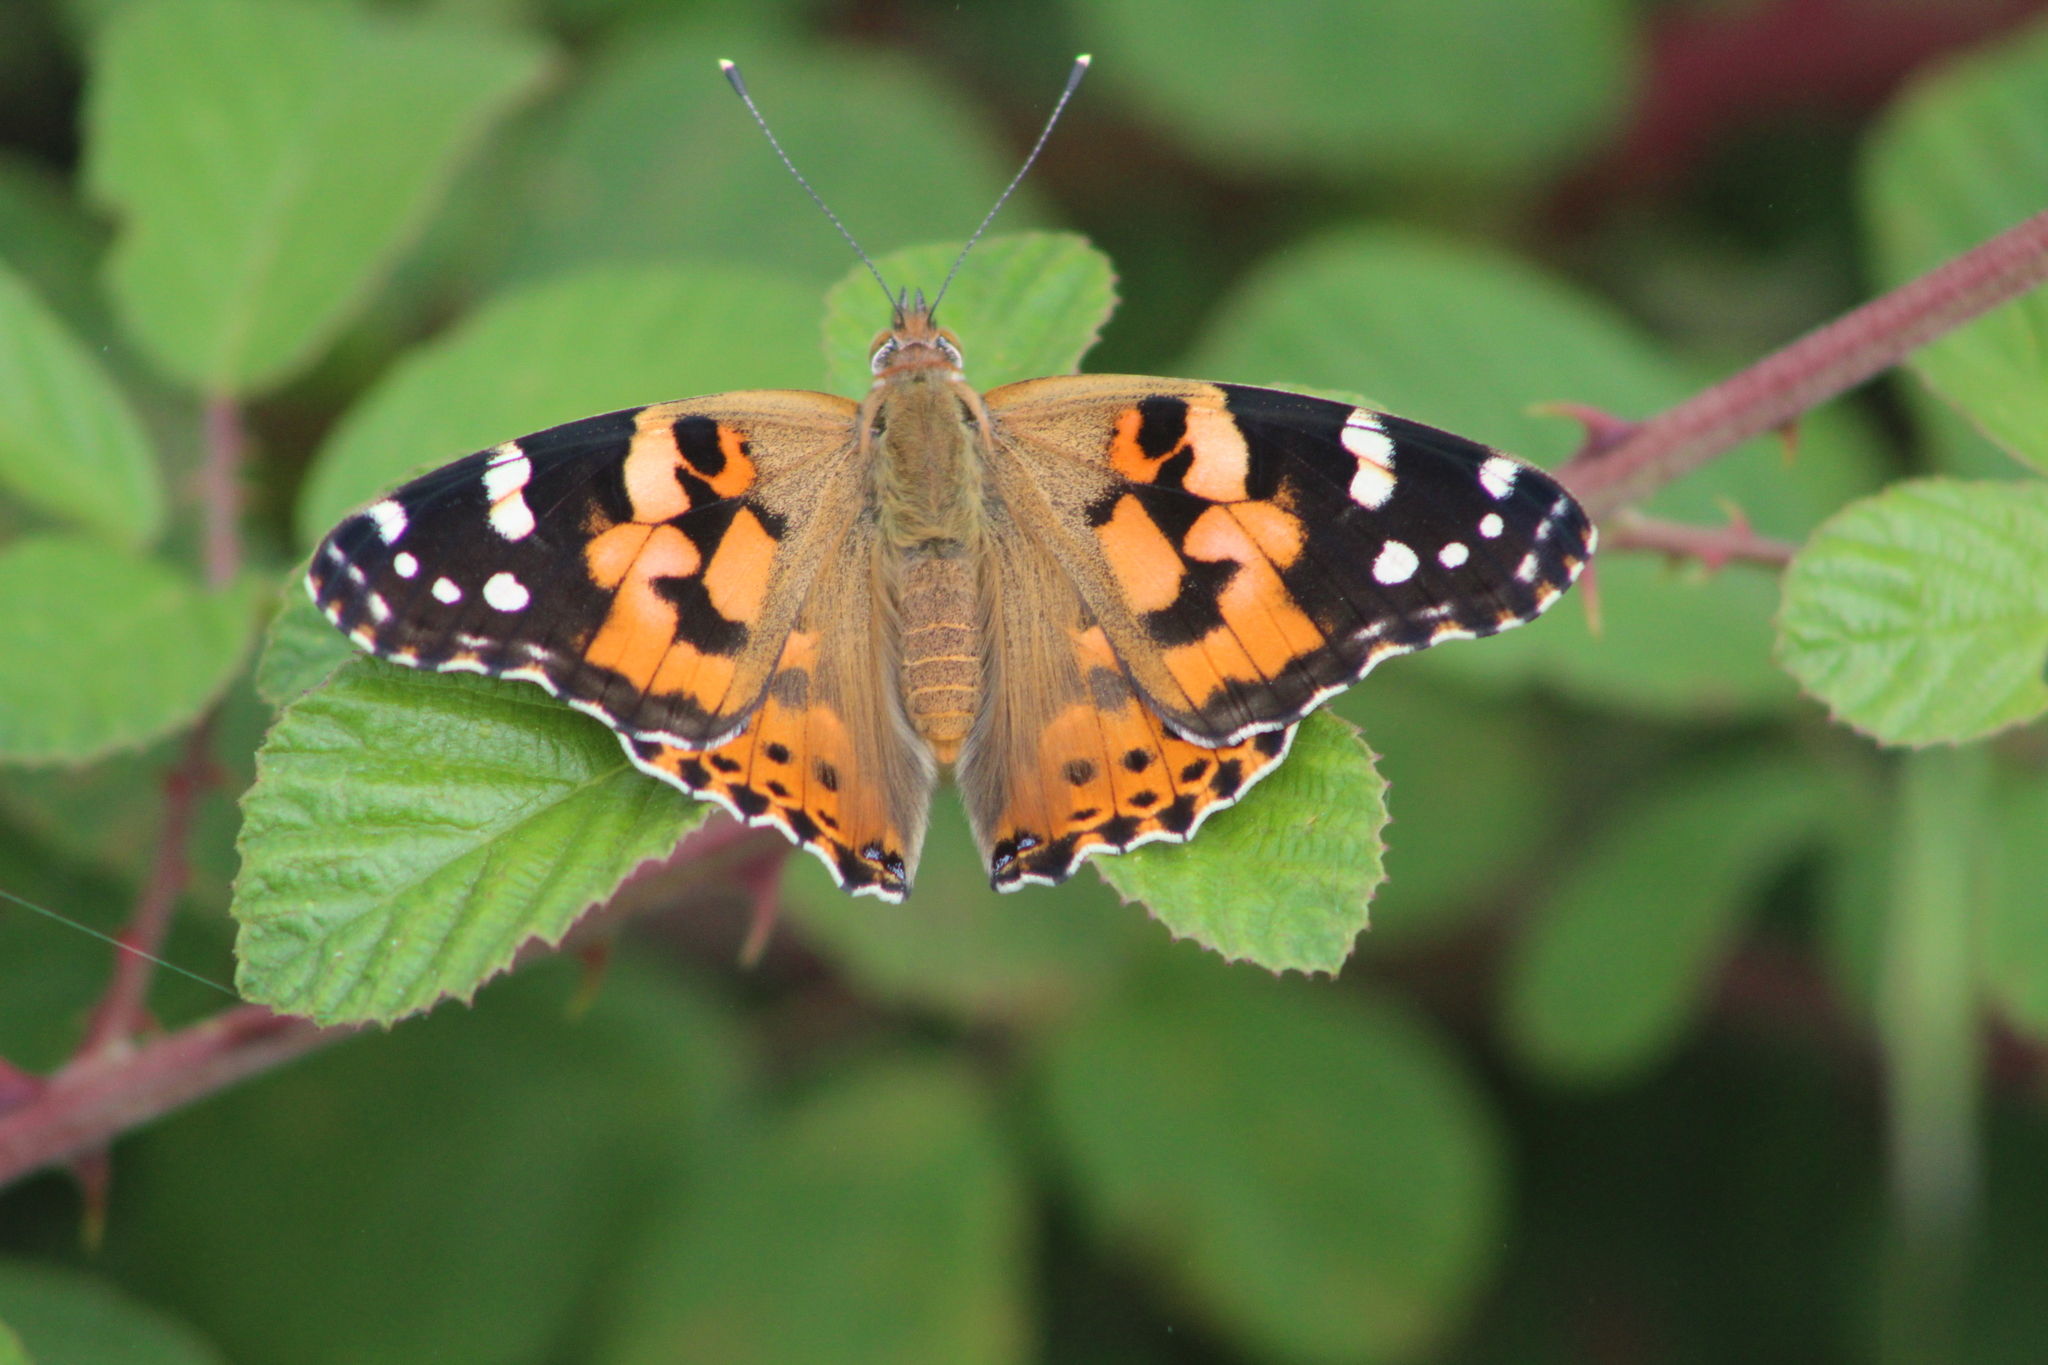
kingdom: Animalia
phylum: Arthropoda
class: Insecta
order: Lepidoptera
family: Nymphalidae
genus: Vanessa
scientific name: Vanessa cardui
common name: Painted lady
